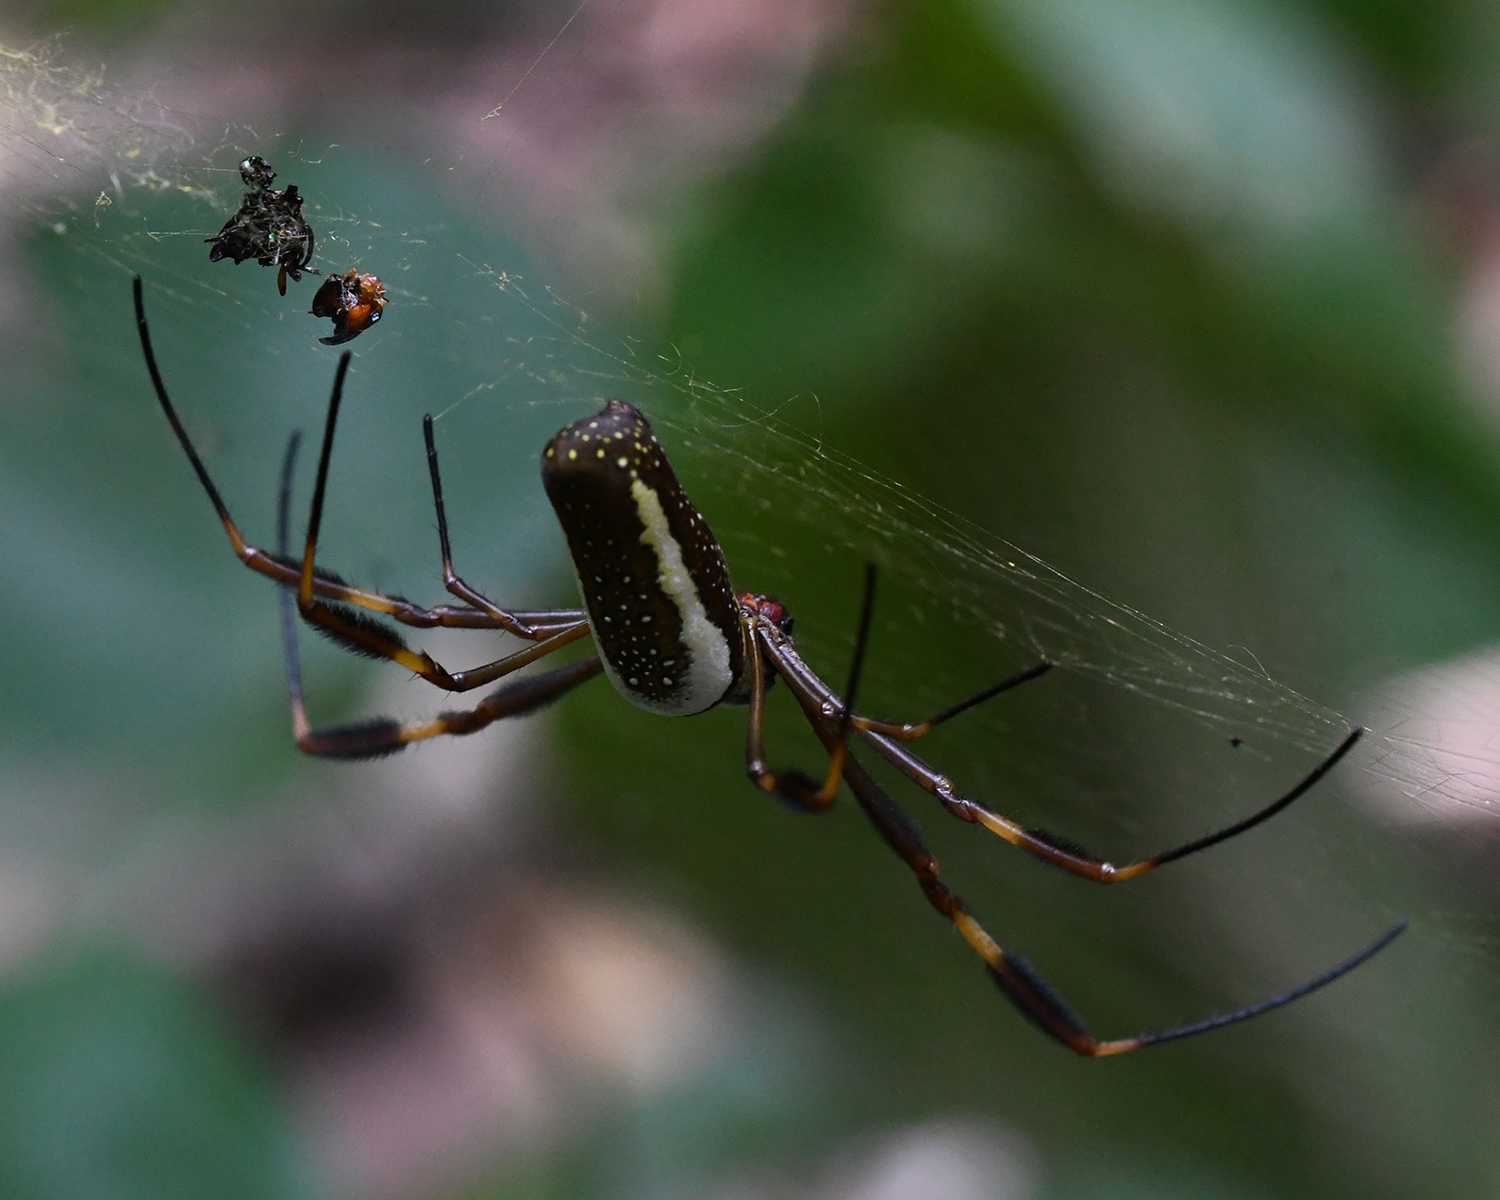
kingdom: Animalia
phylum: Arthropoda
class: Arachnida
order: Araneae
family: Araneidae
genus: Trichonephila
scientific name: Trichonephila clavipes
